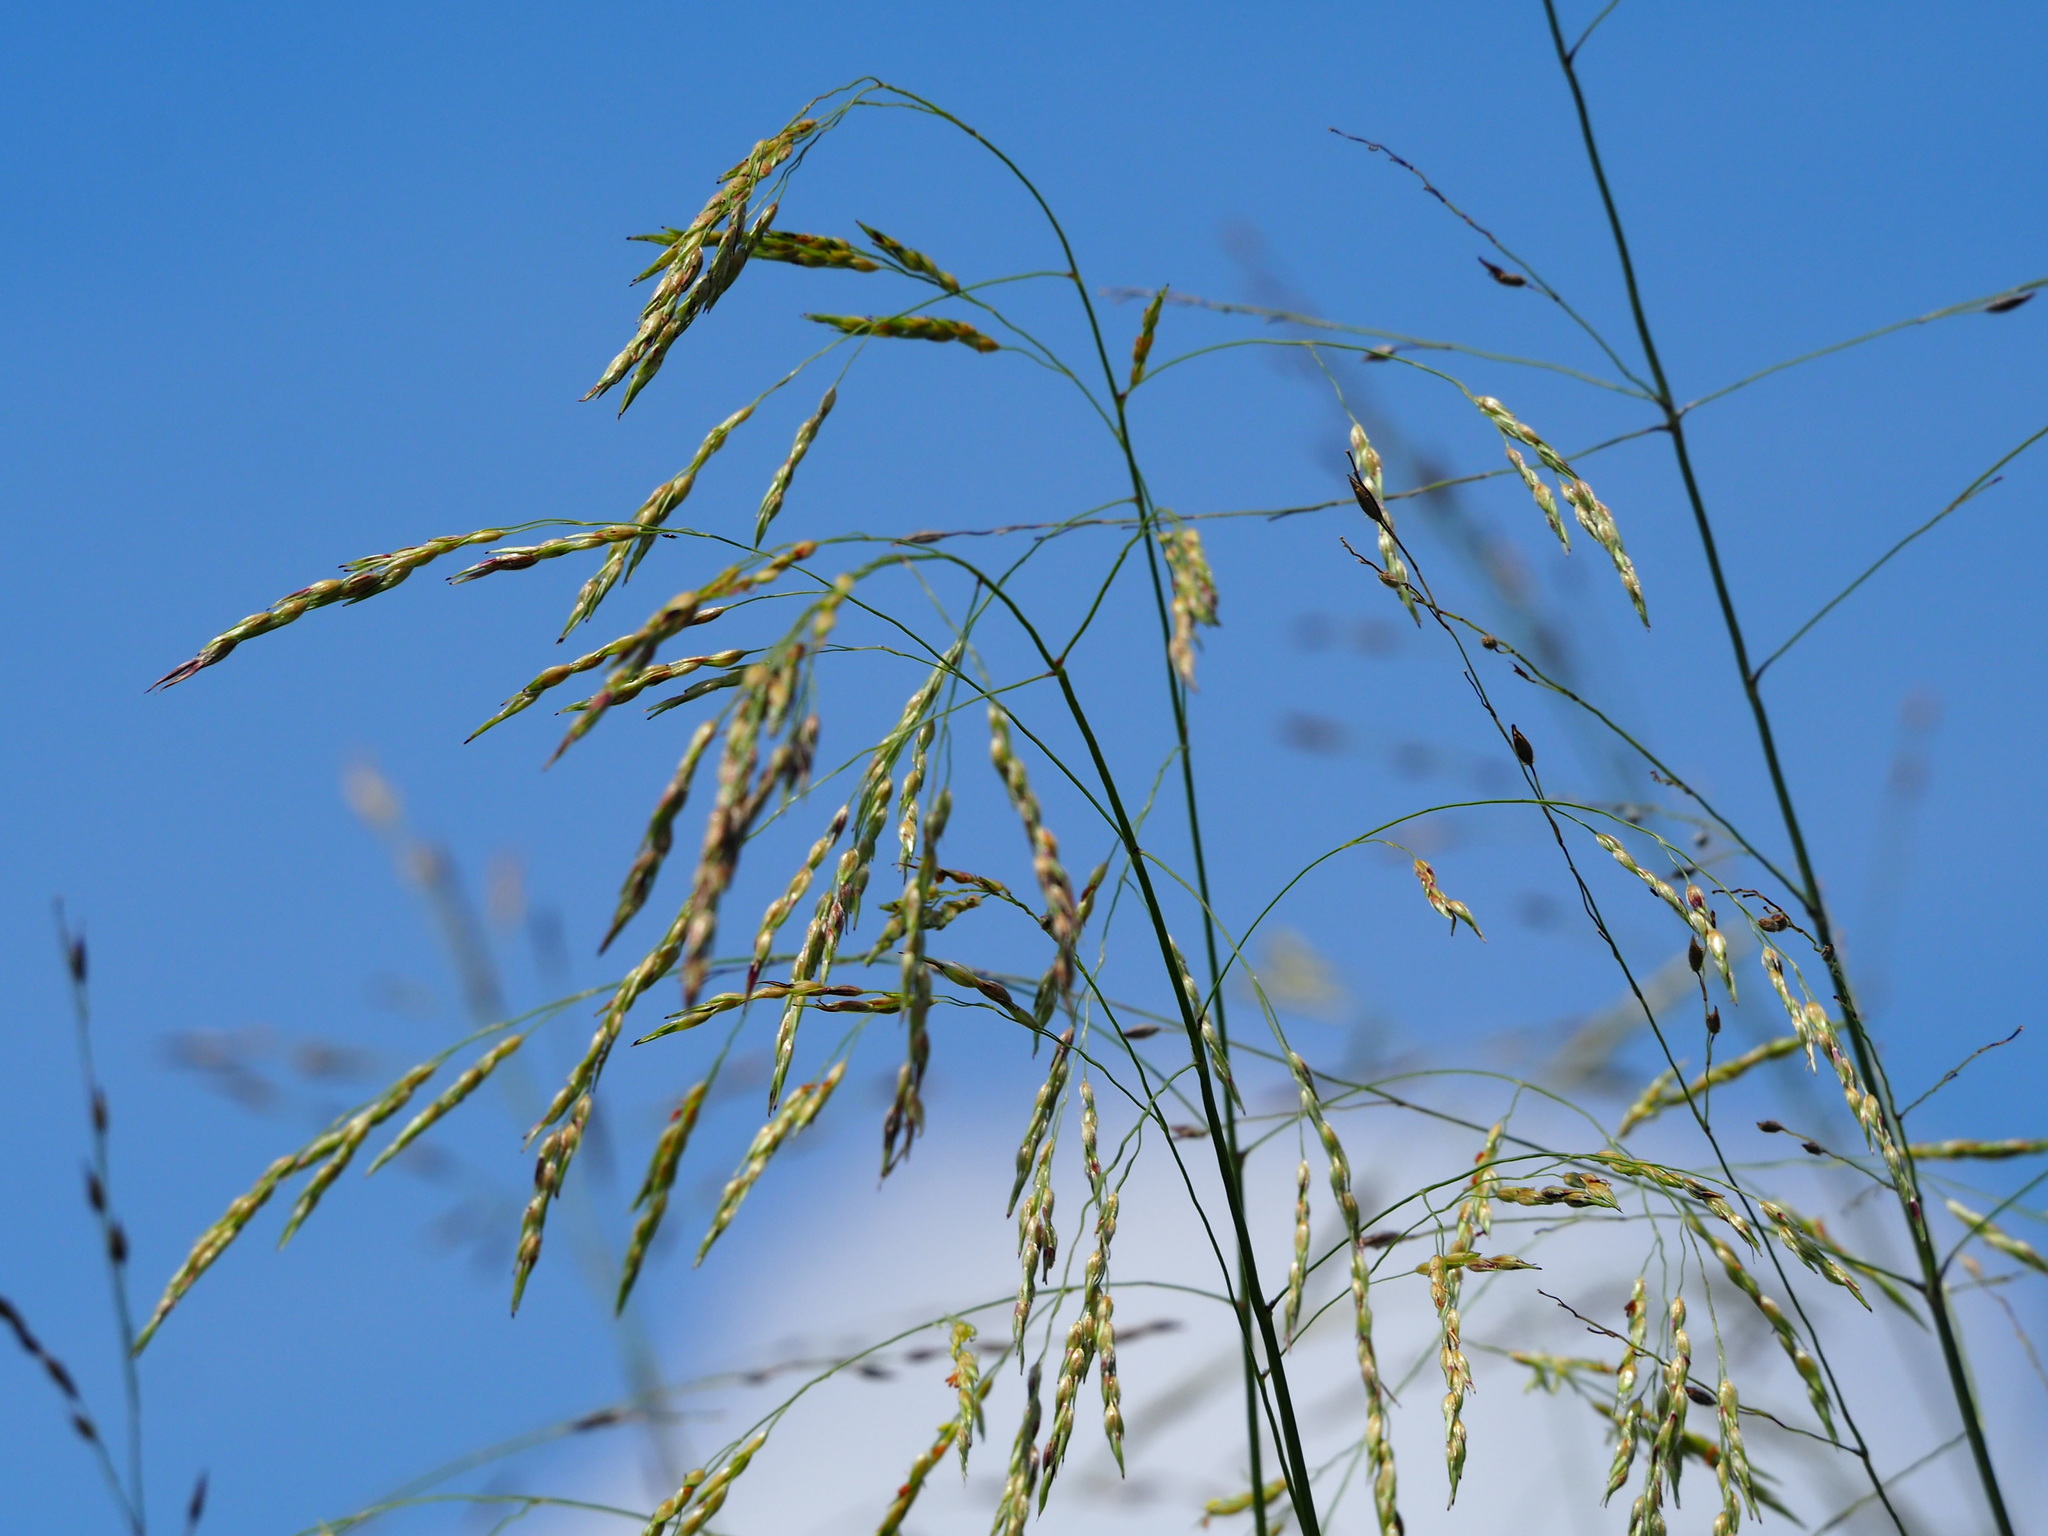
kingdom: Plantae
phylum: Tracheophyta
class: Liliopsida
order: Poales
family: Poaceae
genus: Sorghum
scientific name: Sorghum arundinaceum
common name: Sorghum
